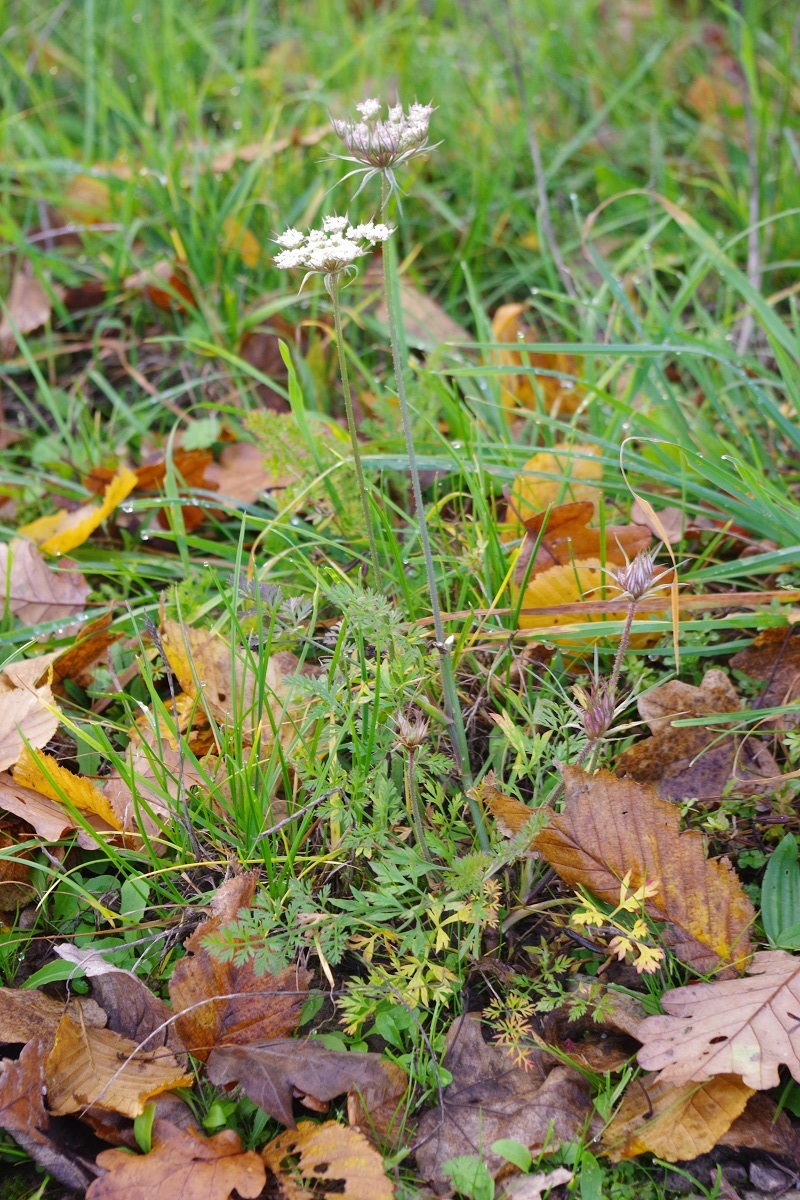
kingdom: Plantae
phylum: Tracheophyta
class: Magnoliopsida
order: Apiales
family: Apiaceae
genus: Daucus
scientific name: Daucus carota
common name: Wild carrot
